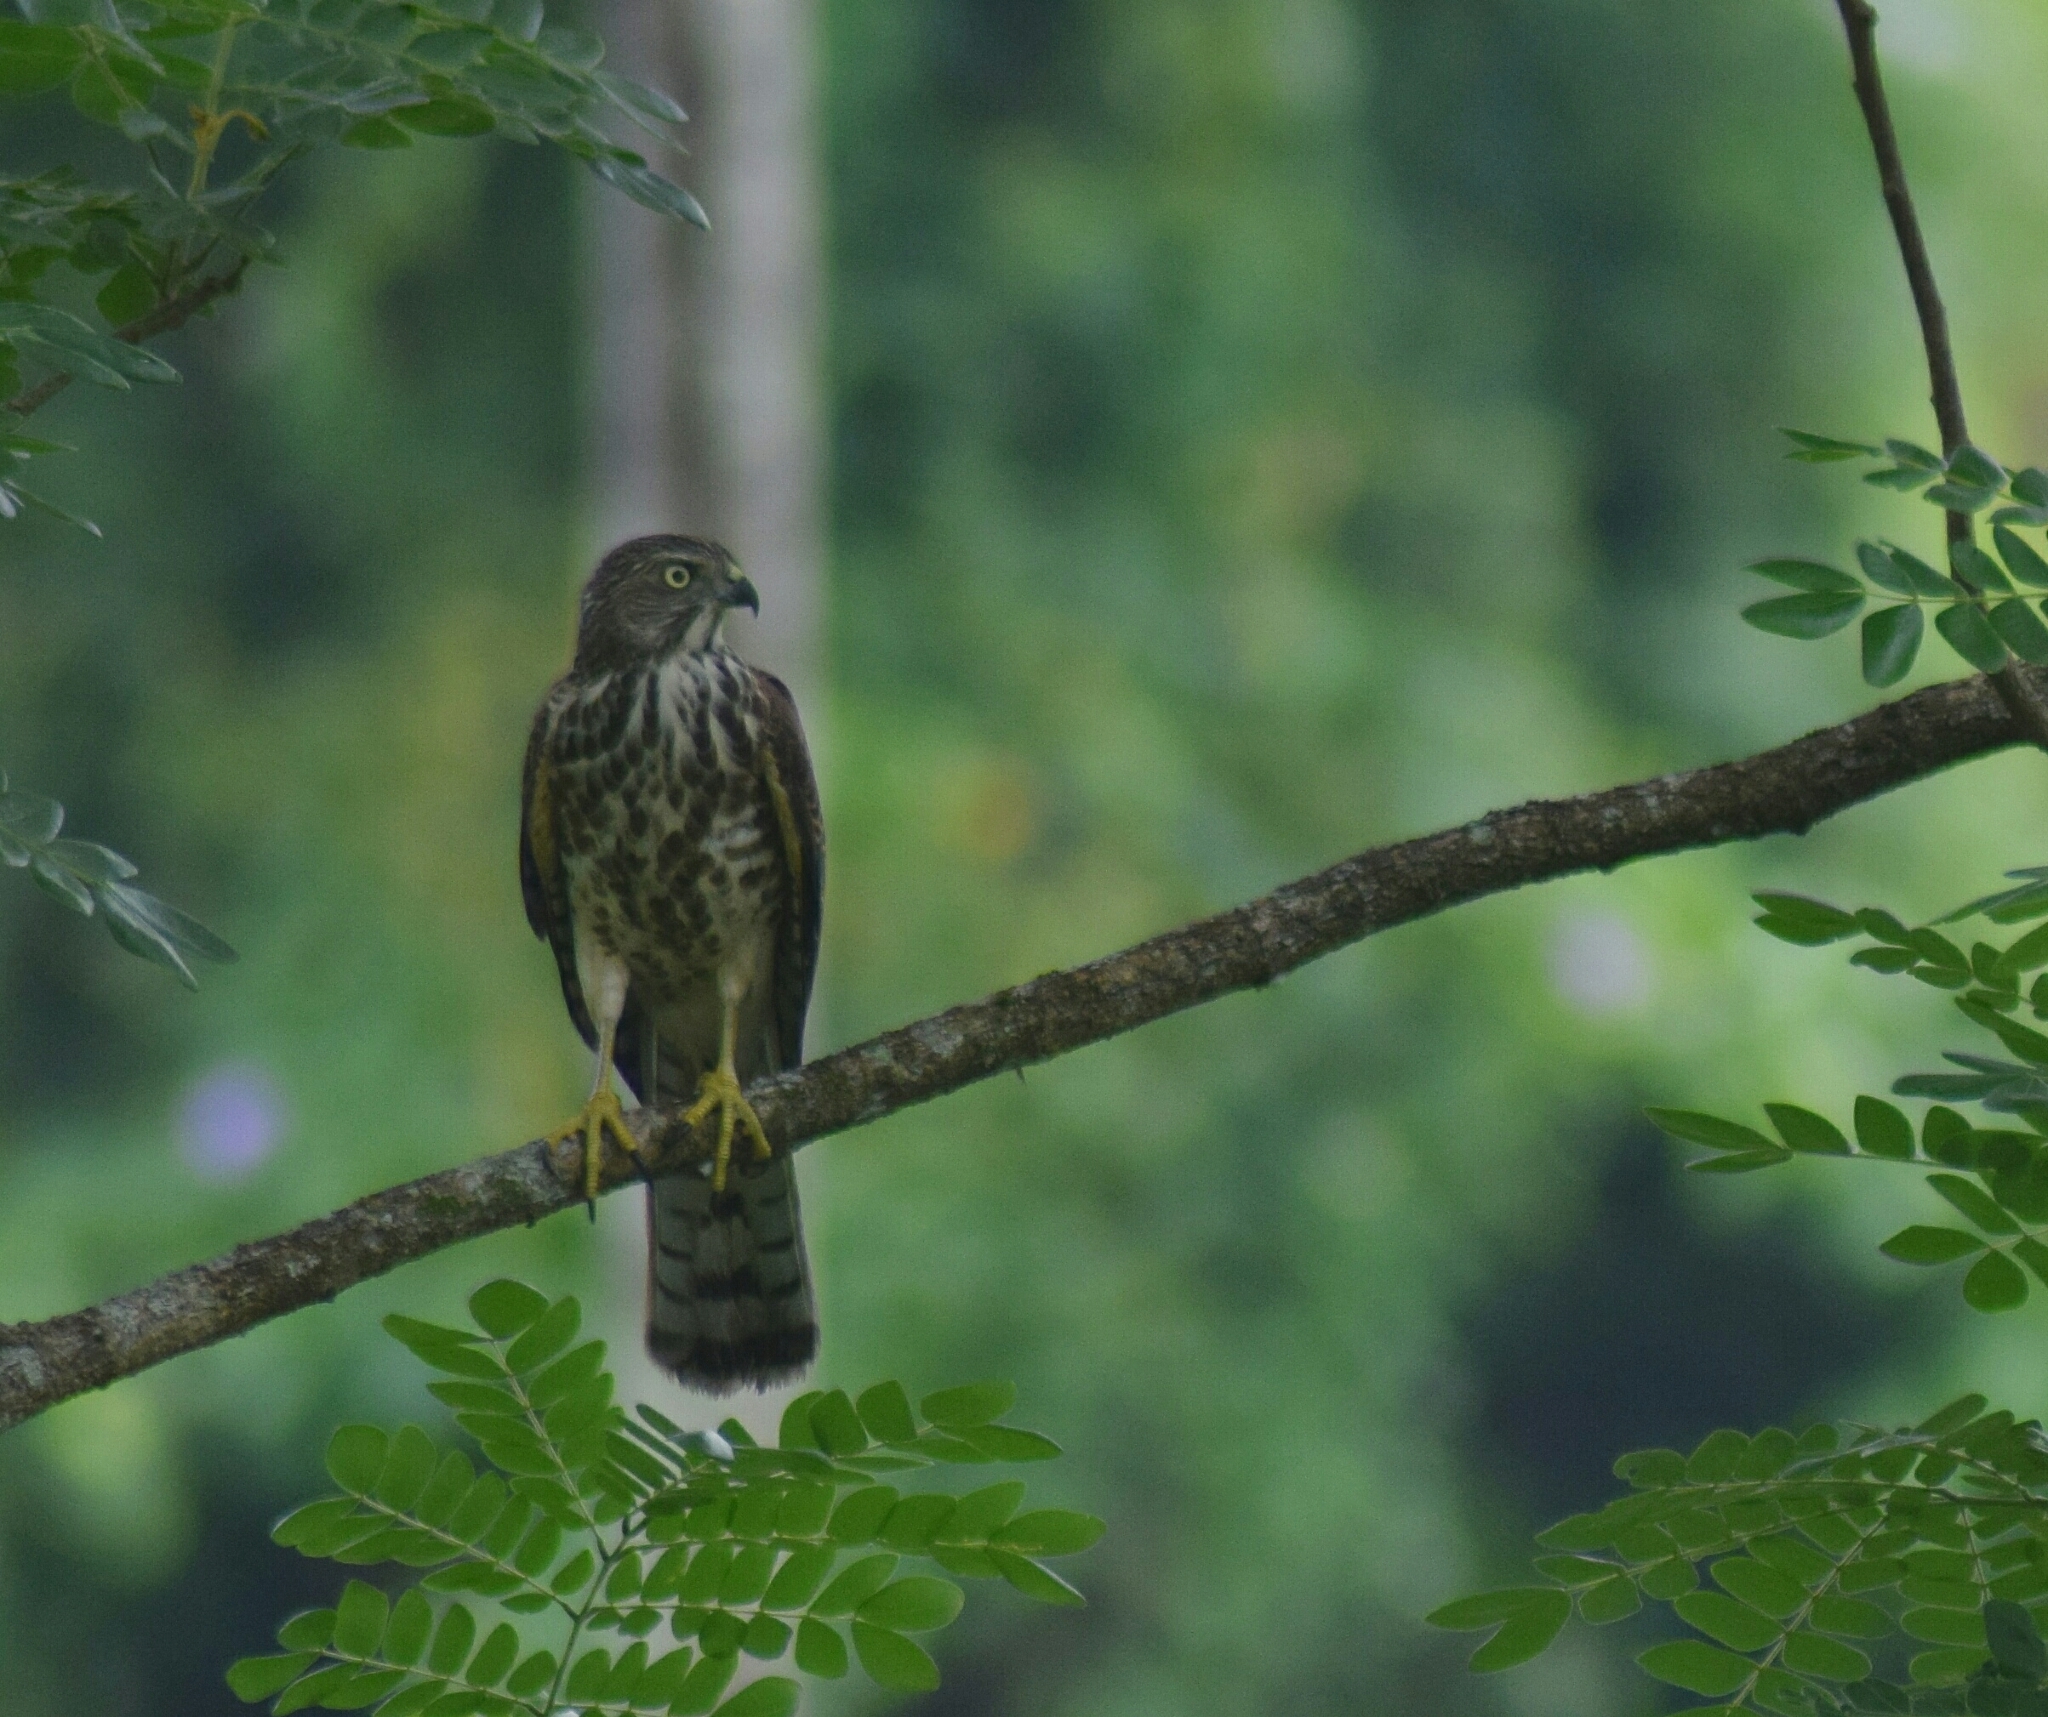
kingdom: Animalia
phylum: Chordata
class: Aves
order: Accipitriformes
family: Accipitridae
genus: Accipiter
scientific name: Accipiter badius
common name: Shikra
